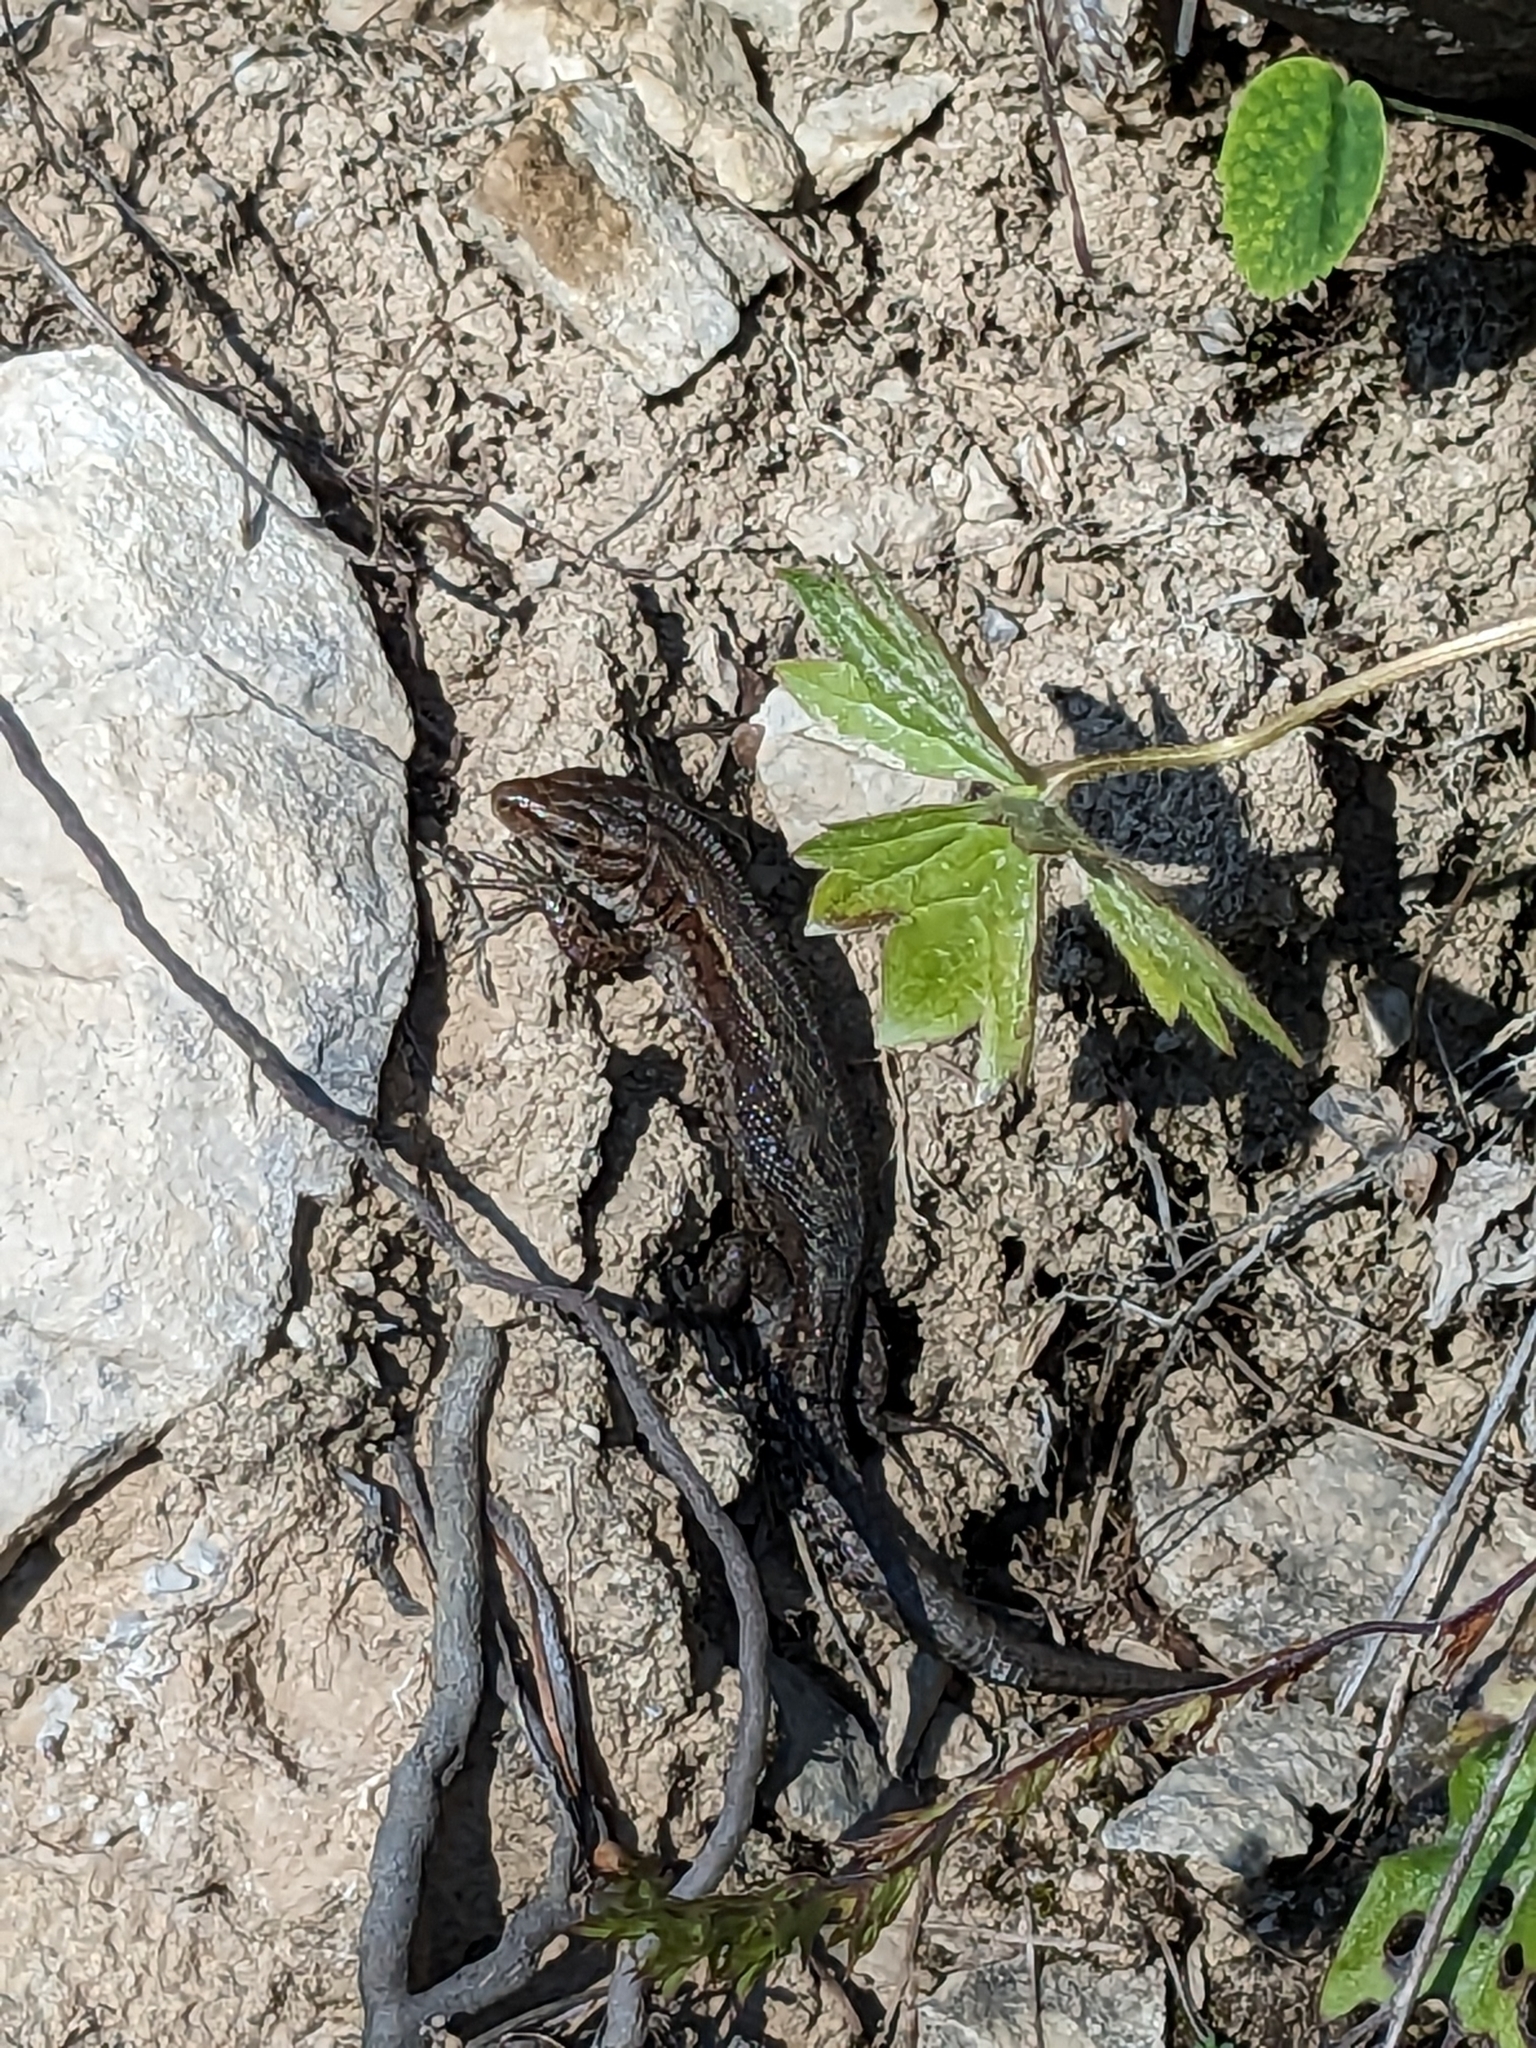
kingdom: Animalia
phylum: Chordata
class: Squamata
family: Lacertidae
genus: Zootoca
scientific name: Zootoca vivipara
